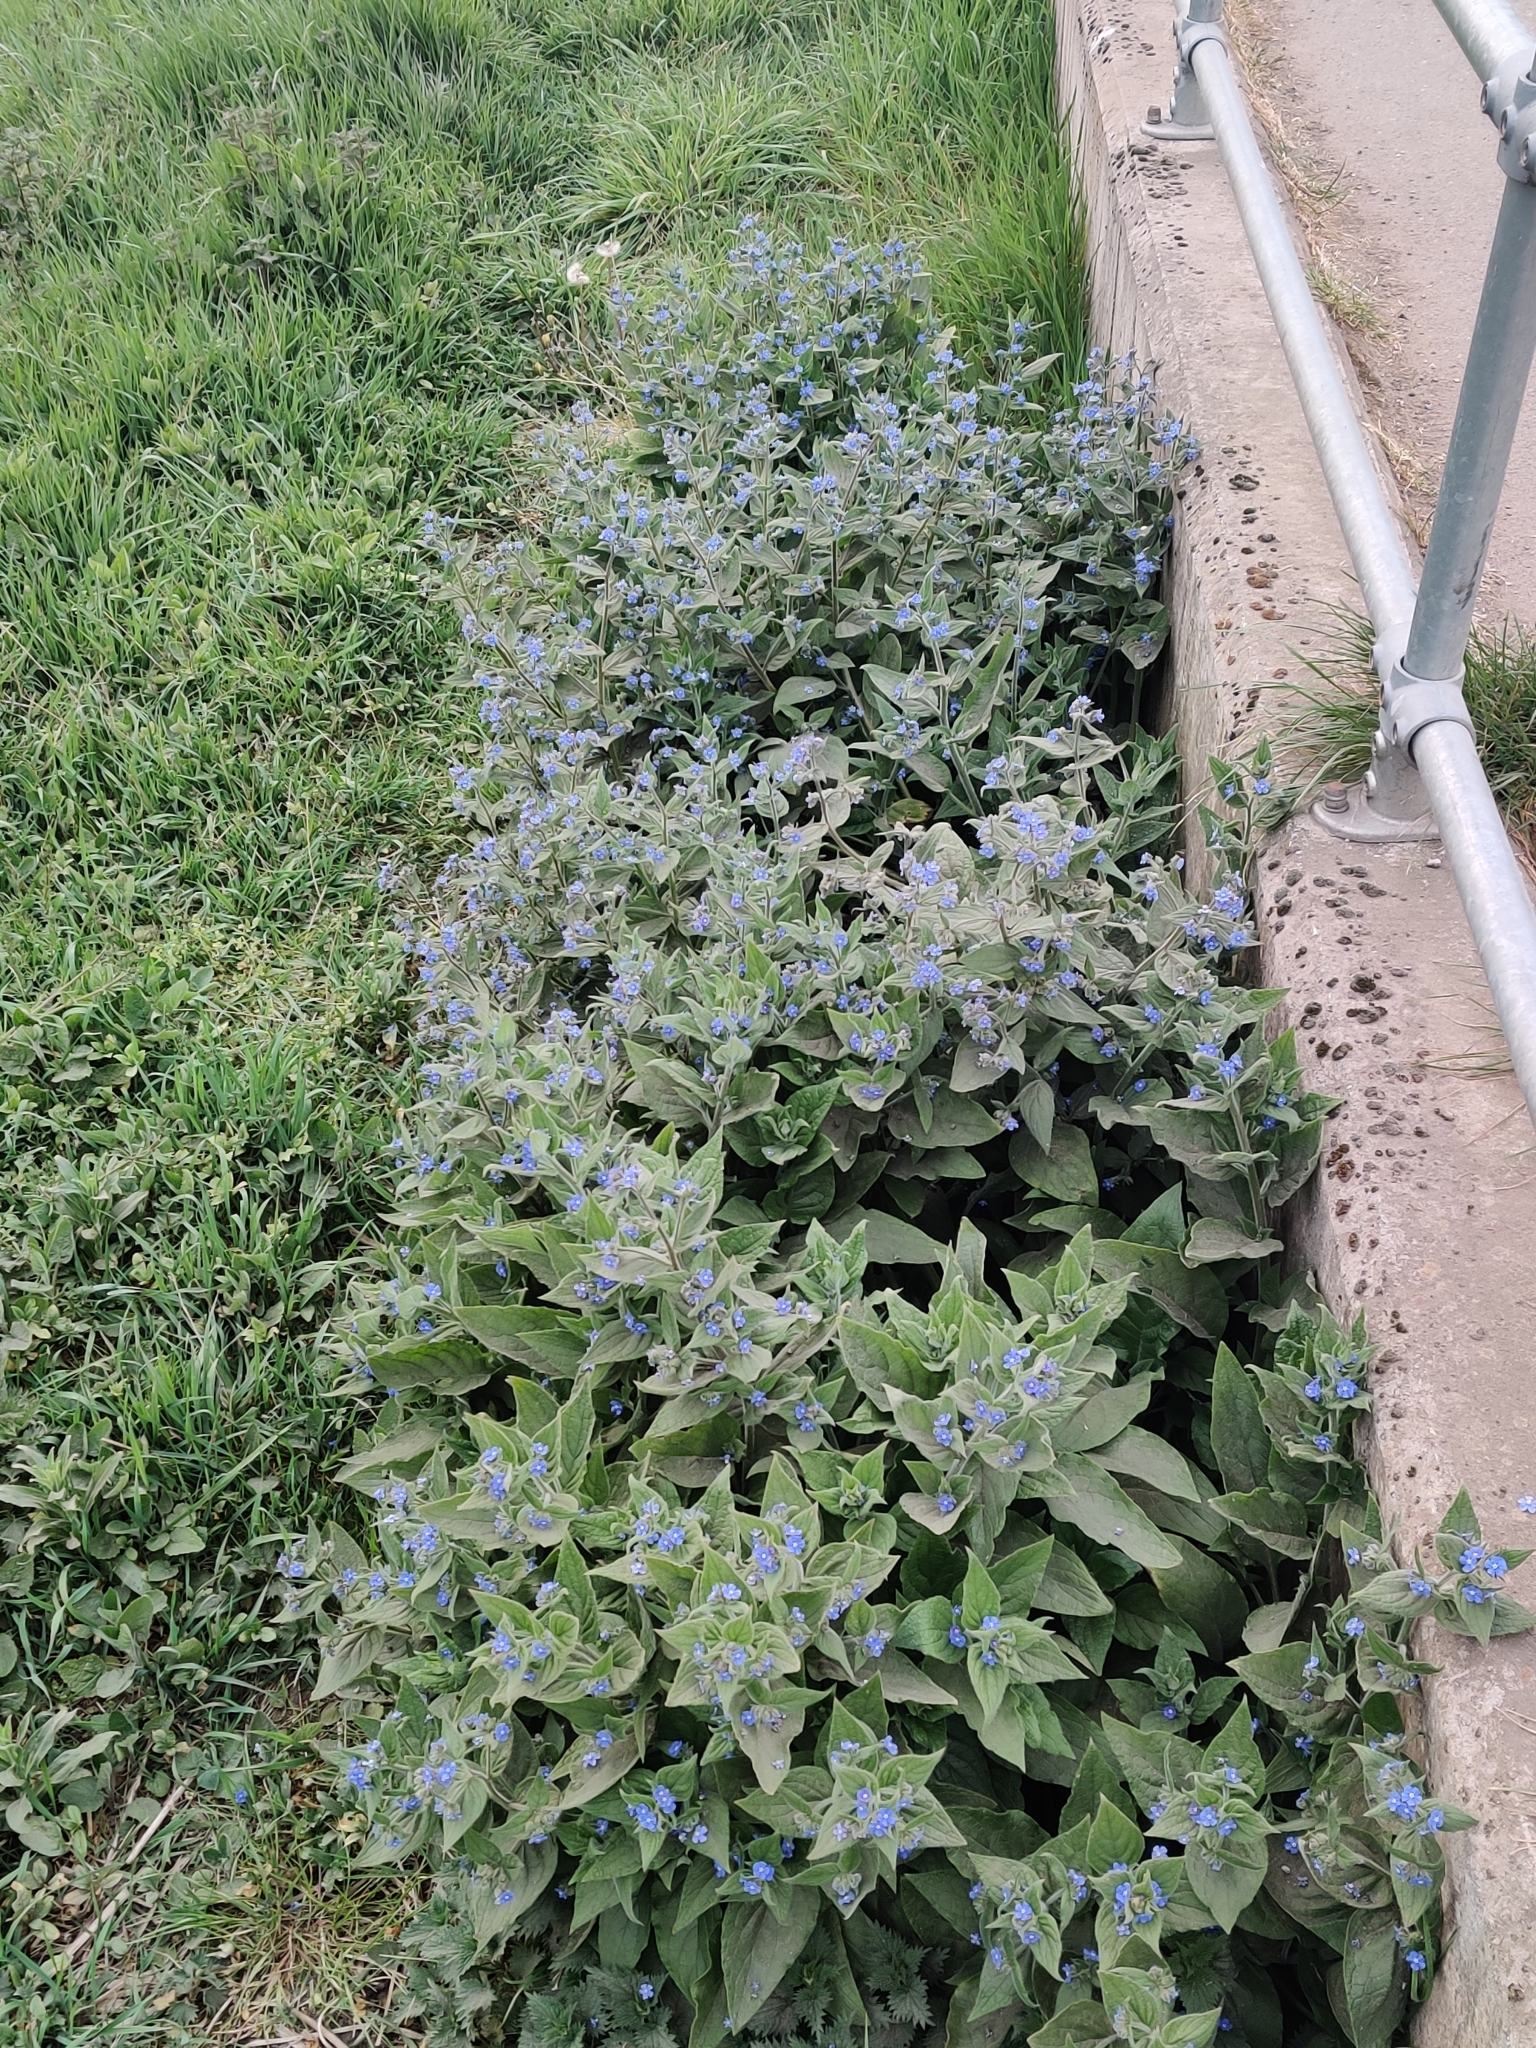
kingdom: Plantae
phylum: Tracheophyta
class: Magnoliopsida
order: Boraginales
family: Boraginaceae
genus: Pentaglottis
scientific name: Pentaglottis sempervirens
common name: Green alkanet
